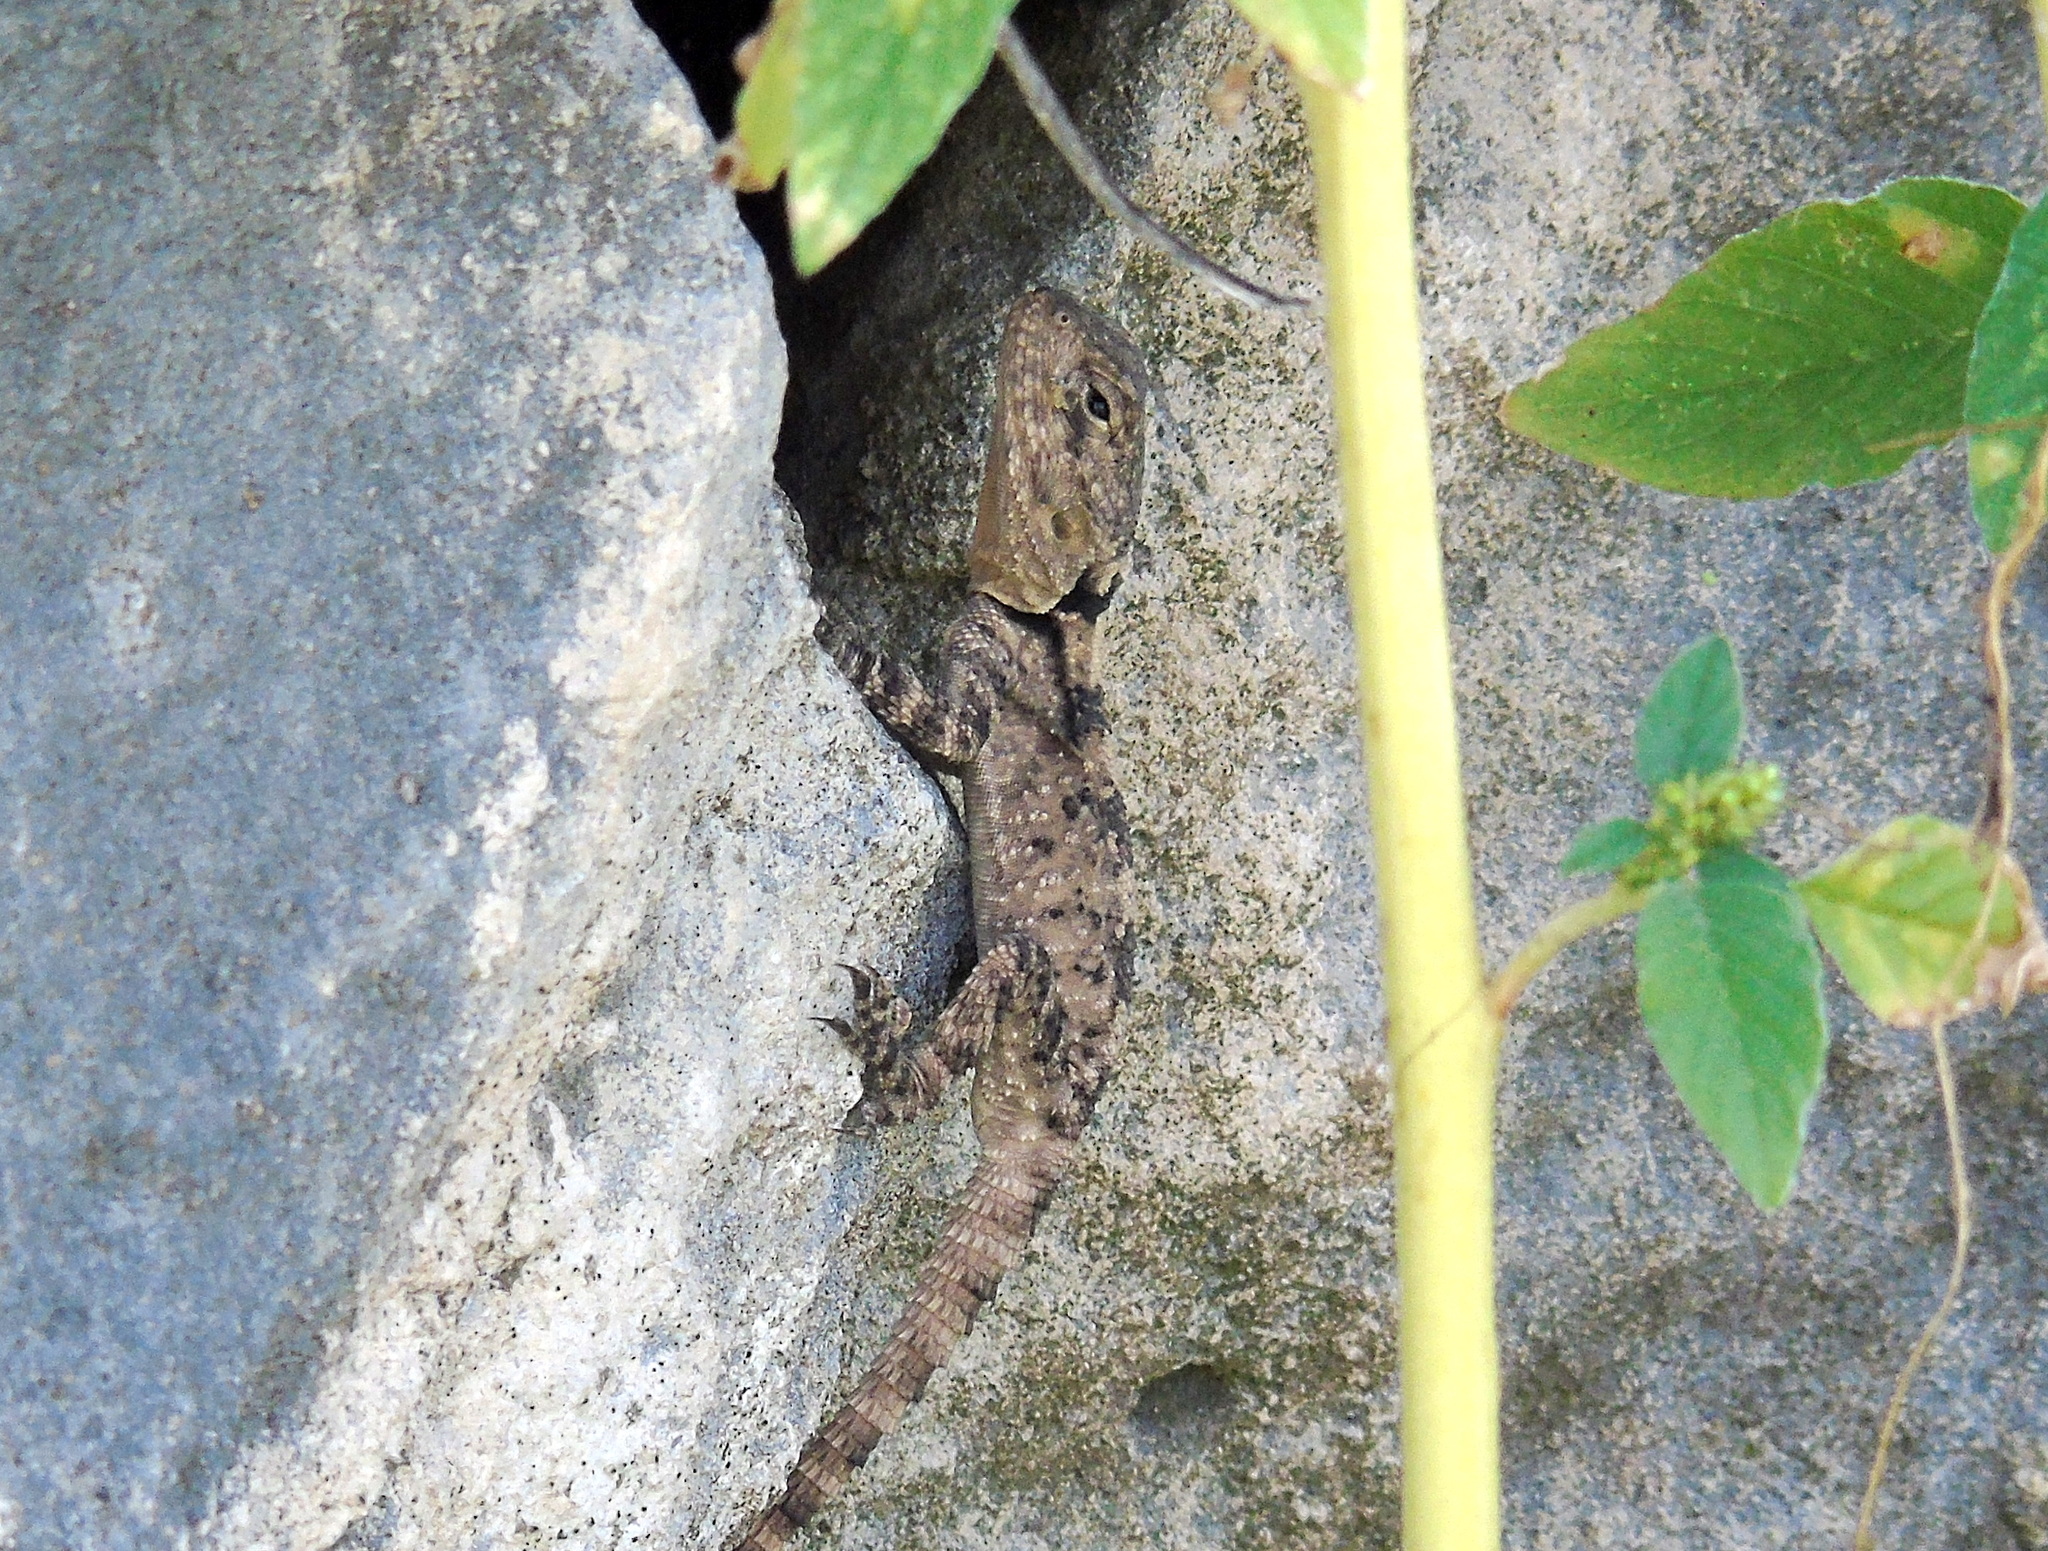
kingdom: Animalia
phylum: Chordata
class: Squamata
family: Agamidae
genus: Stellagama
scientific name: Stellagama stellio
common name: Starred agama
